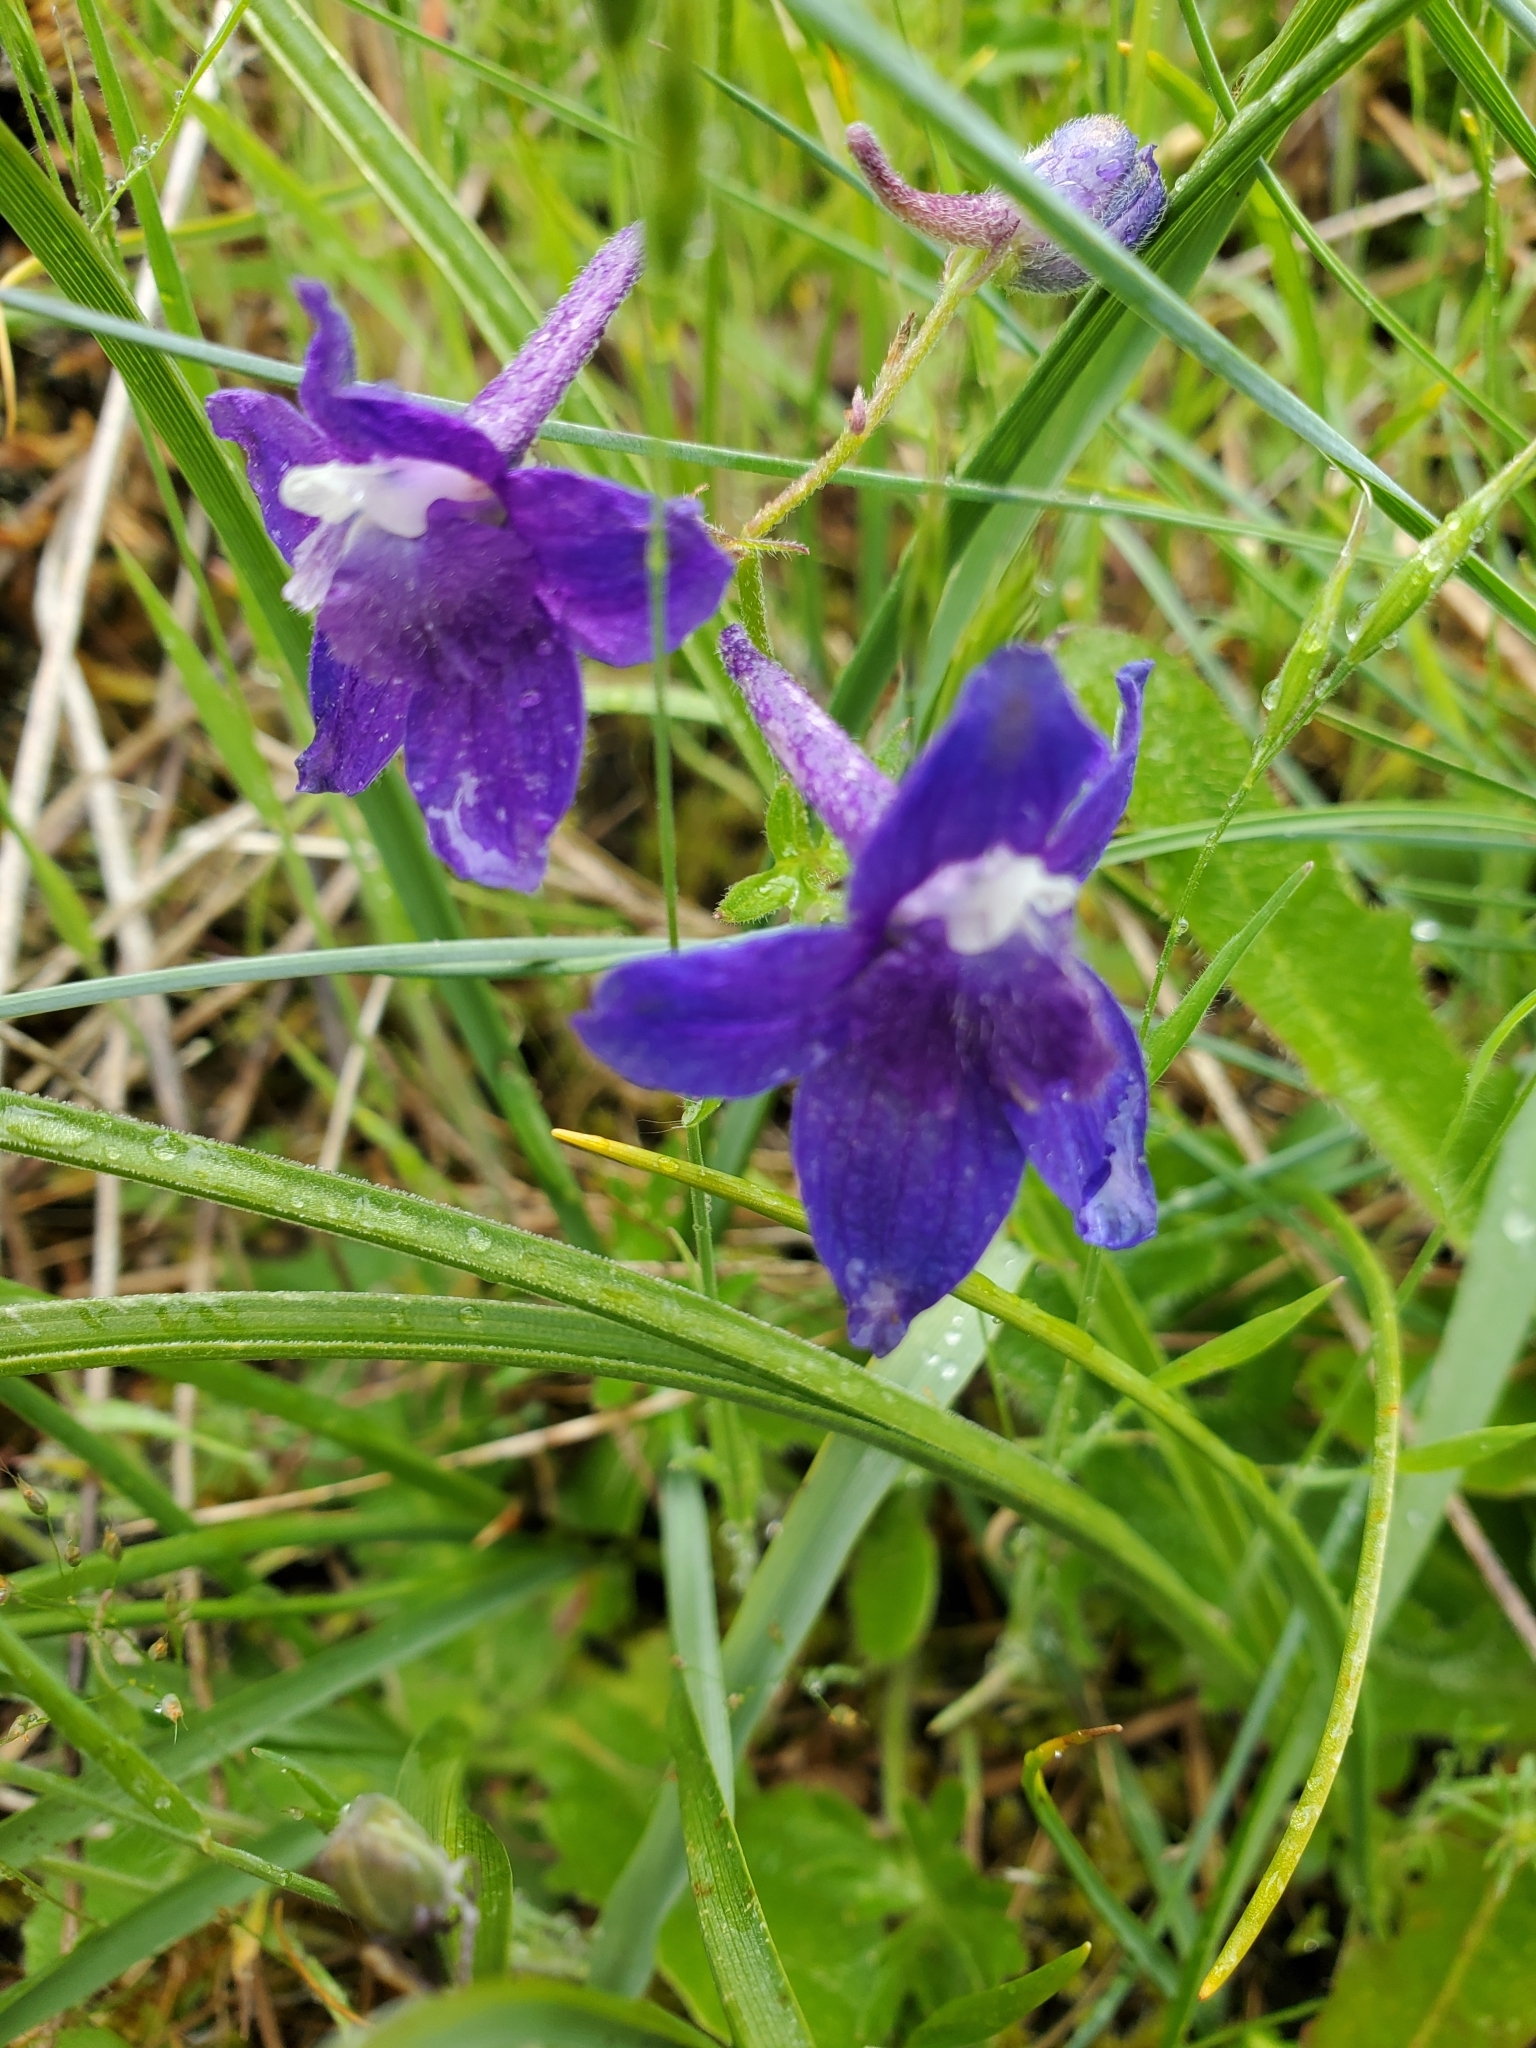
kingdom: Plantae
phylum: Tracheophyta
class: Magnoliopsida
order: Ranunculales
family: Ranunculaceae
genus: Delphinium
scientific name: Delphinium menziesii
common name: Menzies's larkspur
